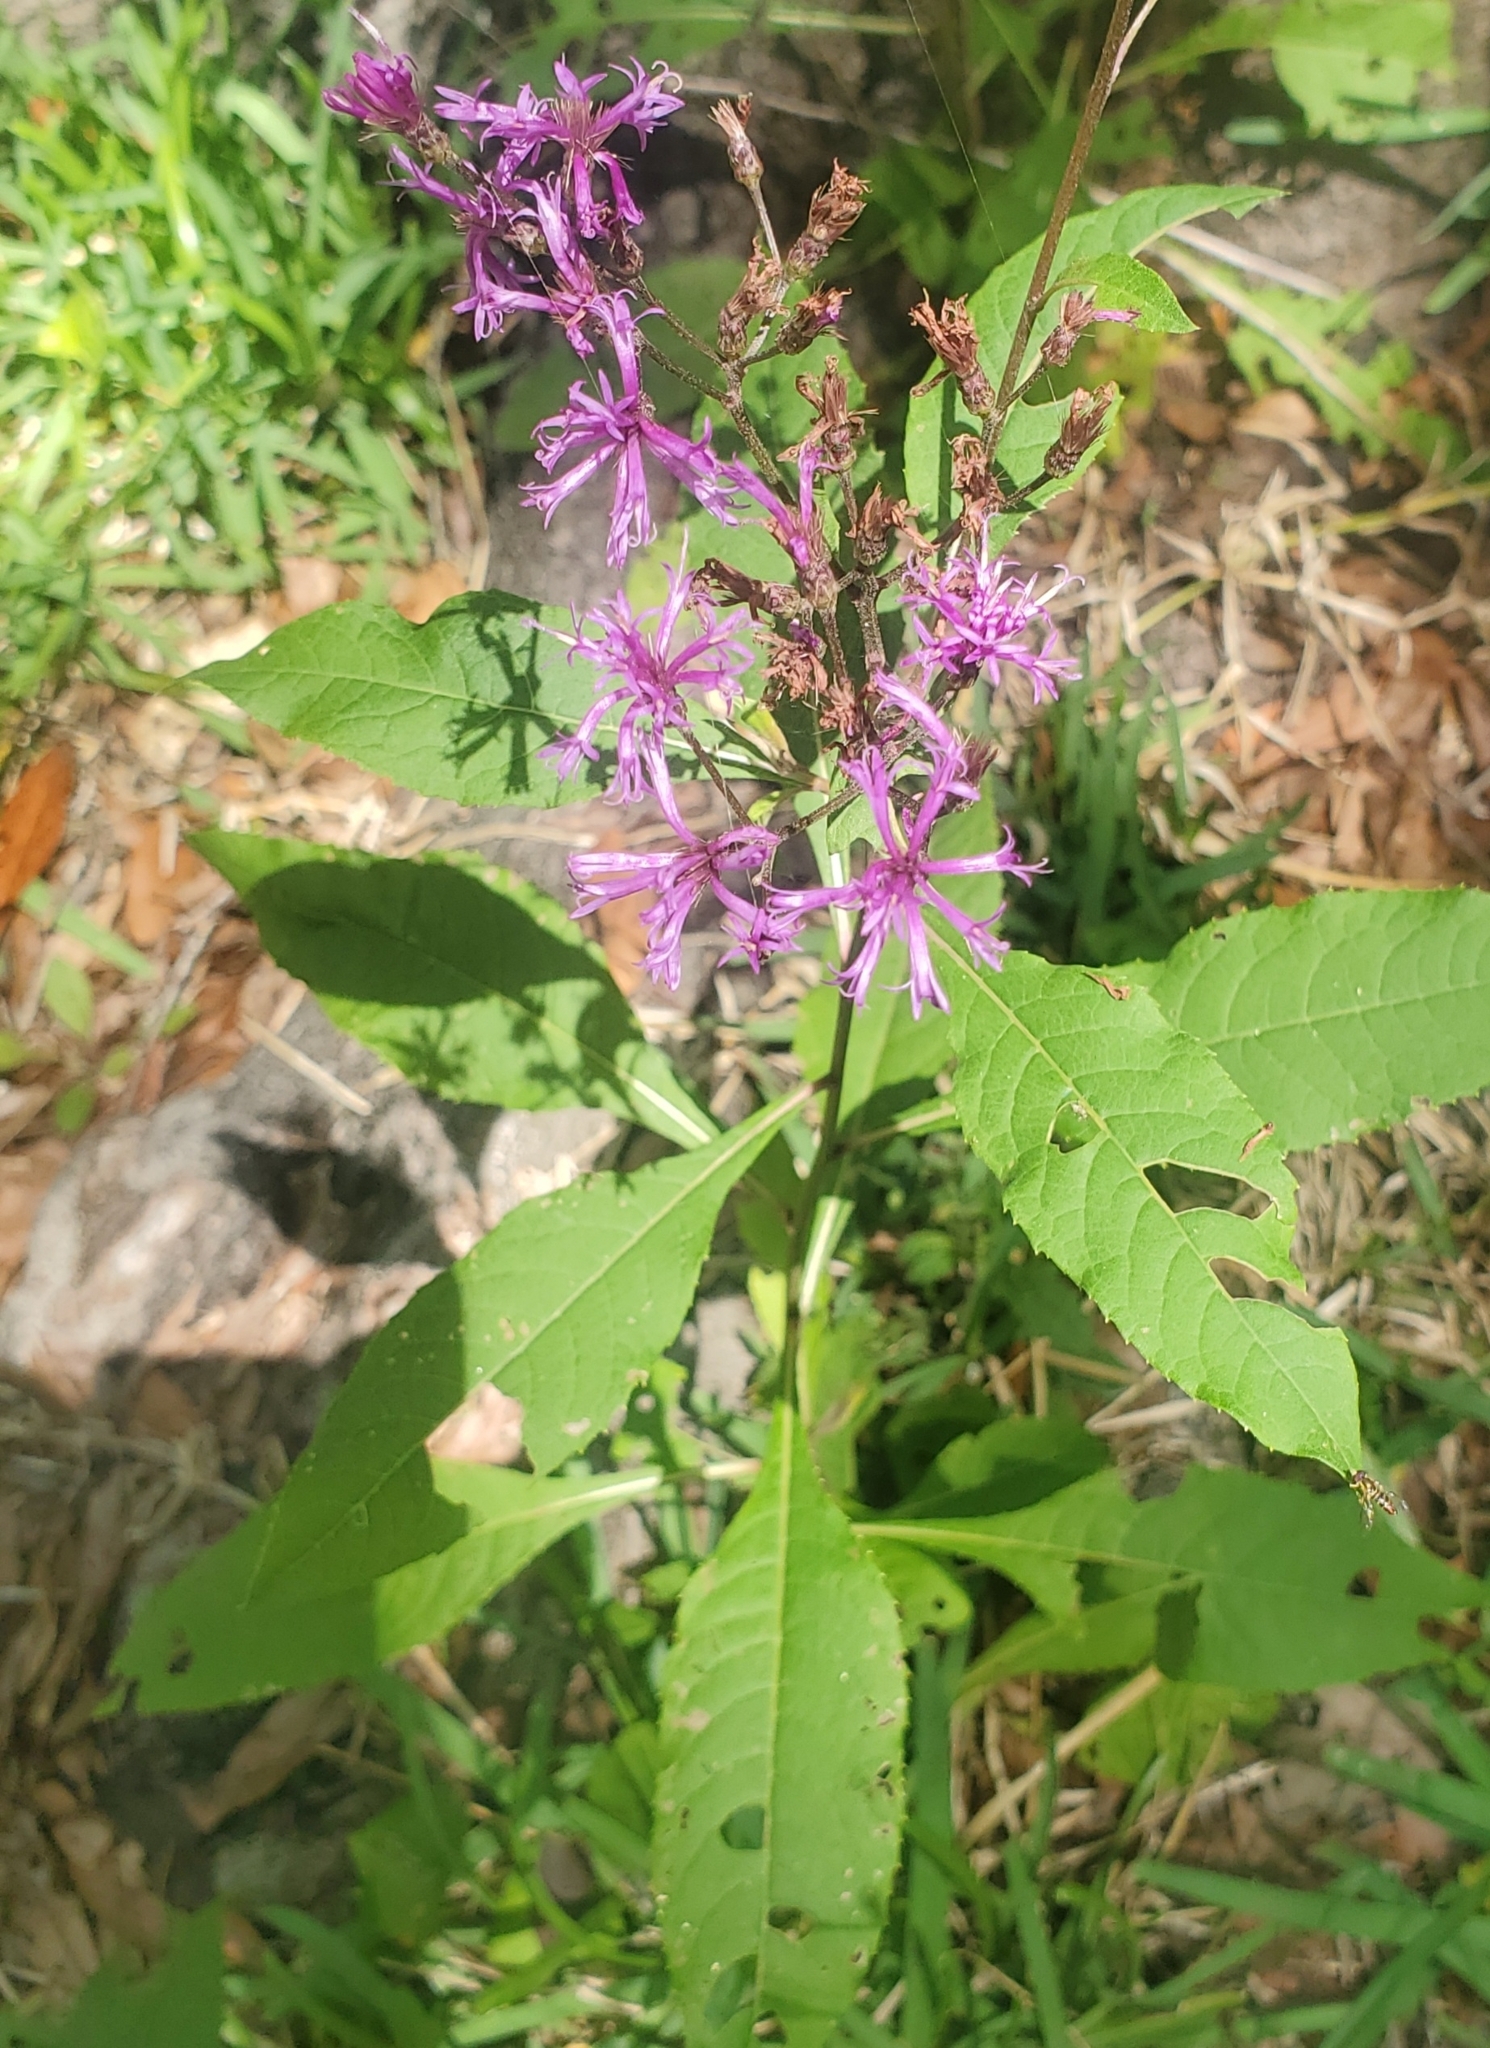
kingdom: Plantae
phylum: Tracheophyta
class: Magnoliopsida
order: Asterales
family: Asteraceae
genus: Vernonia
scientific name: Vernonia gigantea
